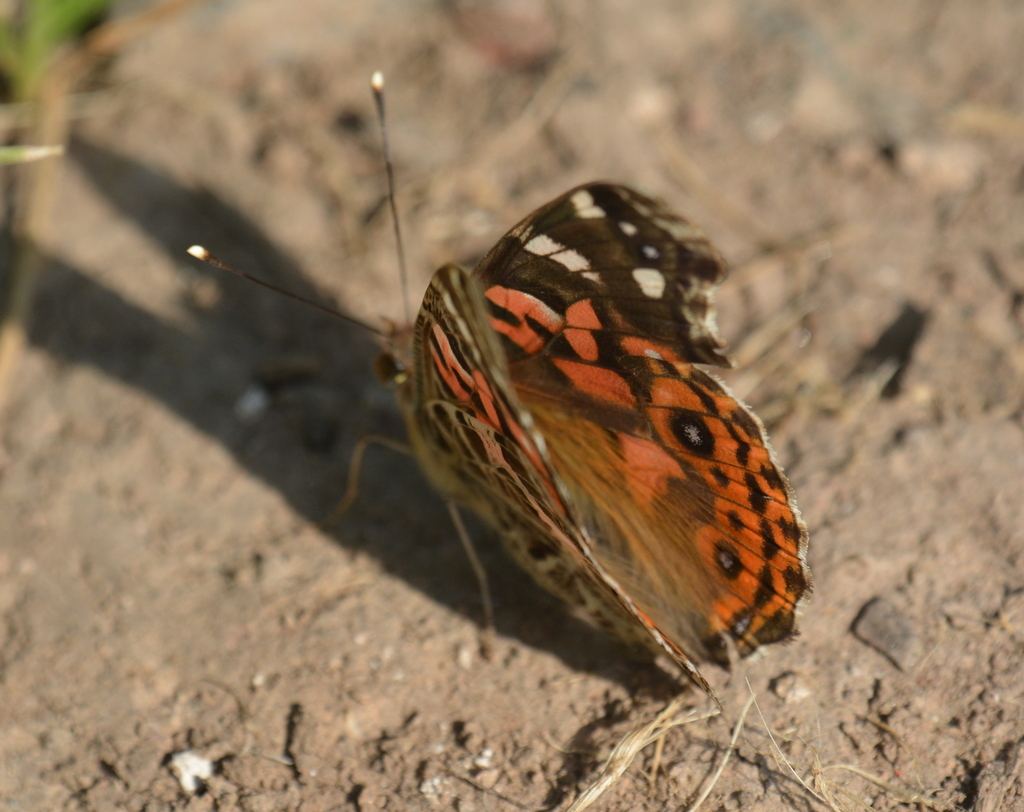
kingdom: Animalia
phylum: Arthropoda
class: Insecta
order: Lepidoptera
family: Nymphalidae
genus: Vanessa
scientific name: Vanessa braziliensis
